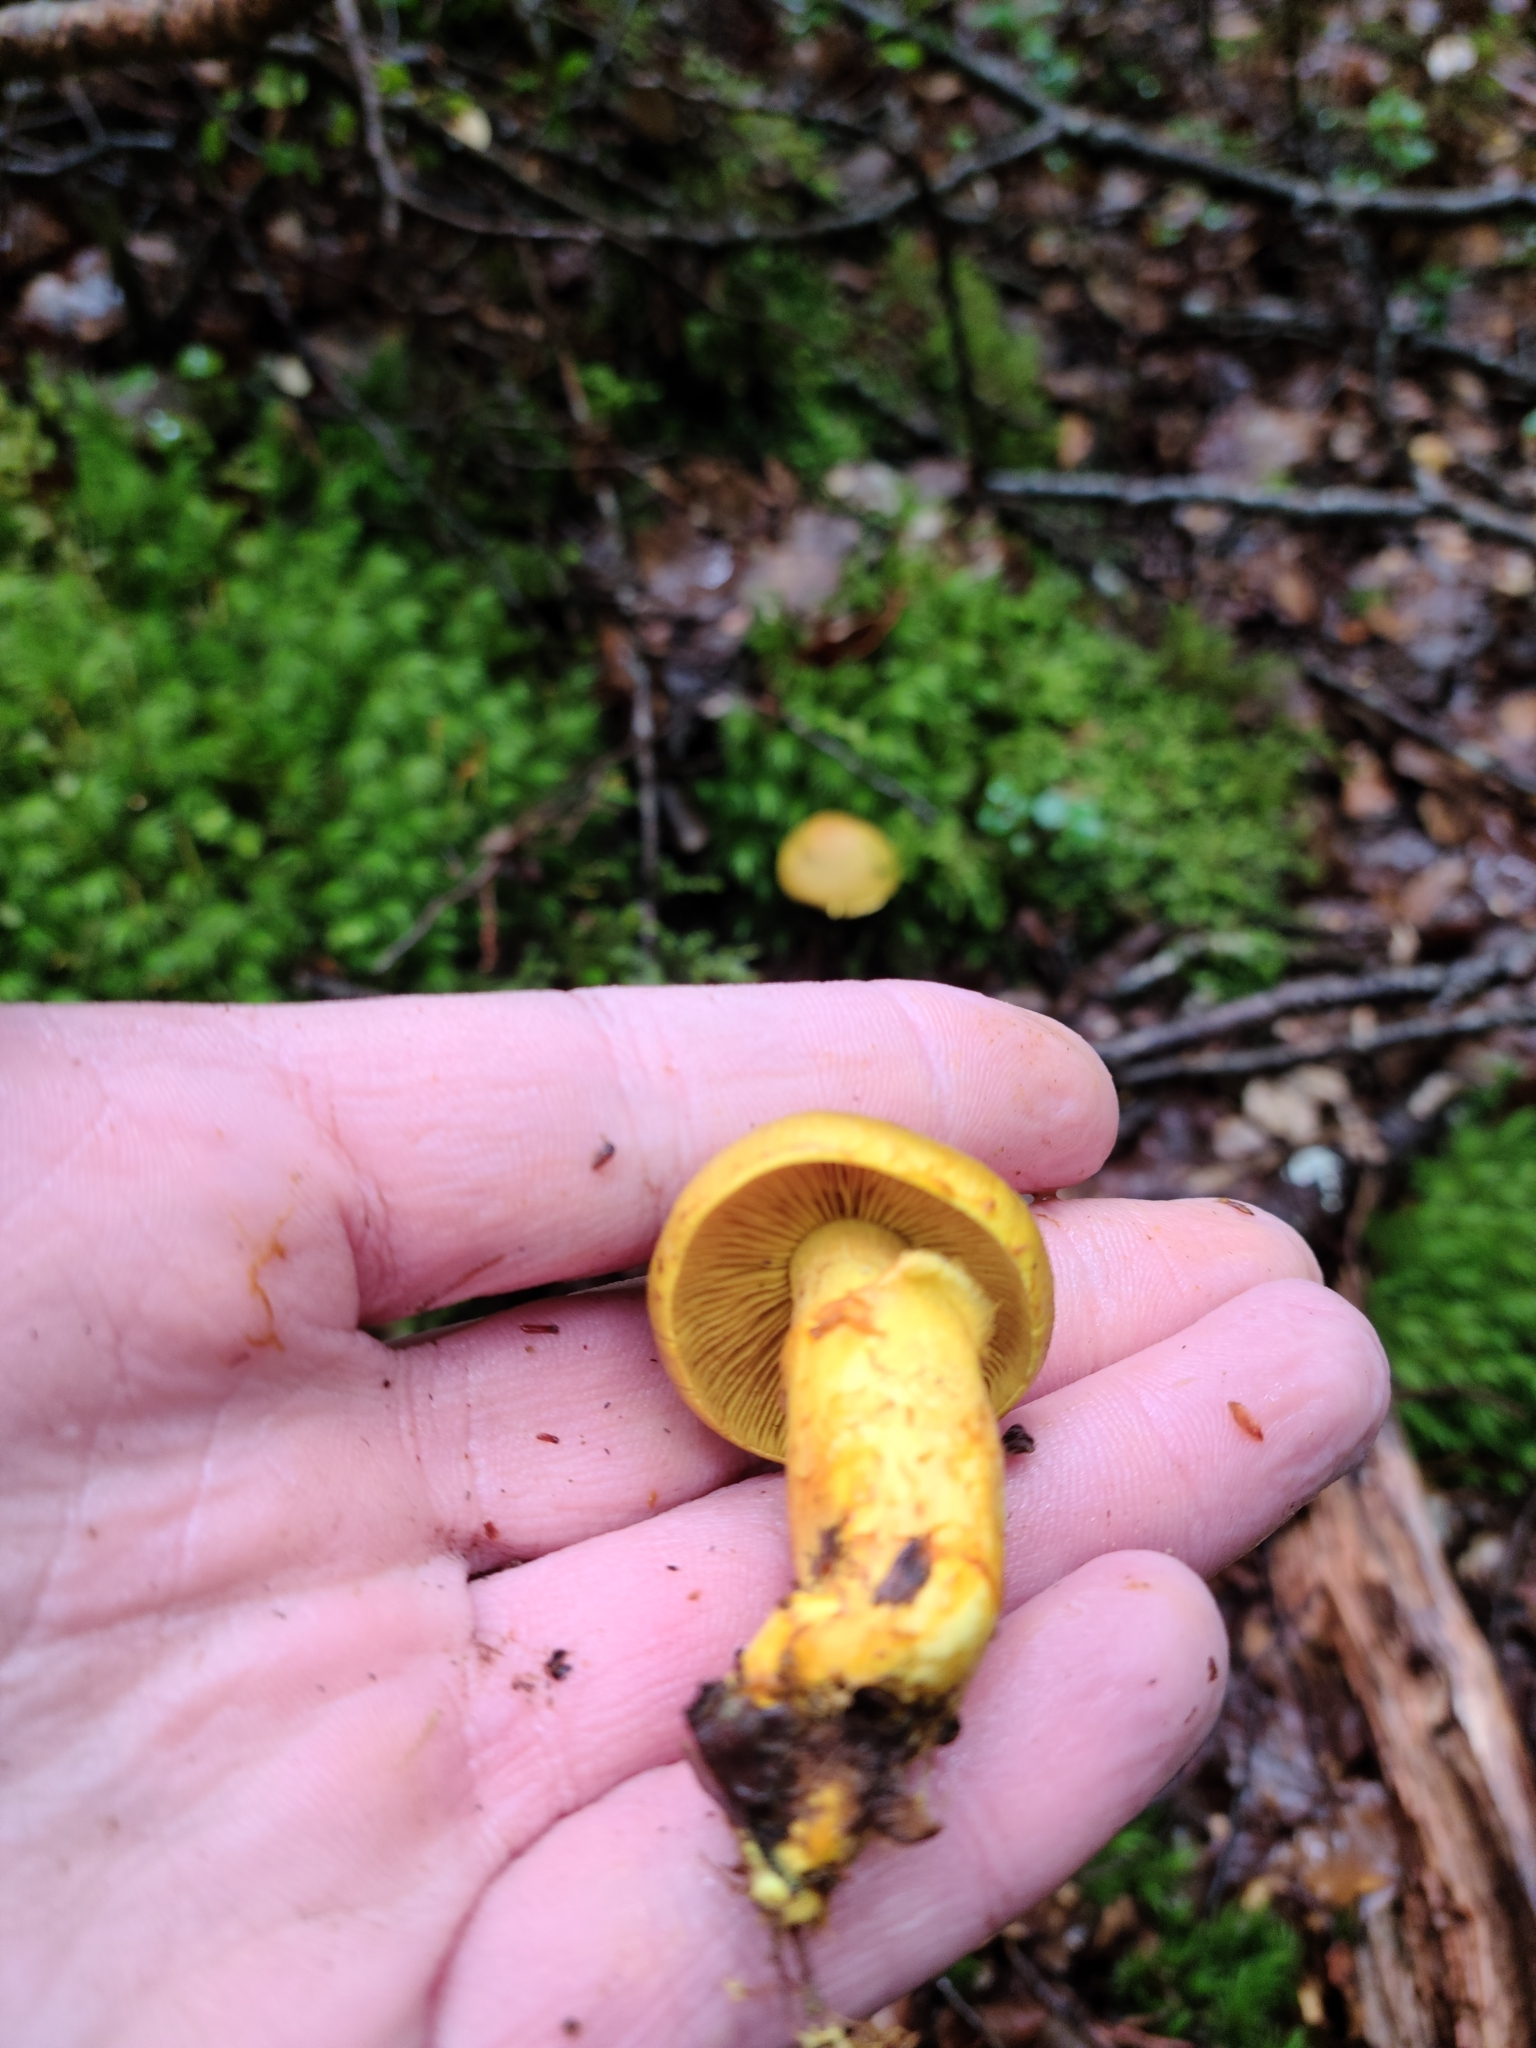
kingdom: Fungi
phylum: Basidiomycota
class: Agaricomycetes
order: Agaricales
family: Cortinariaceae
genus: Cortinarius
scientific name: Cortinarius canarius
